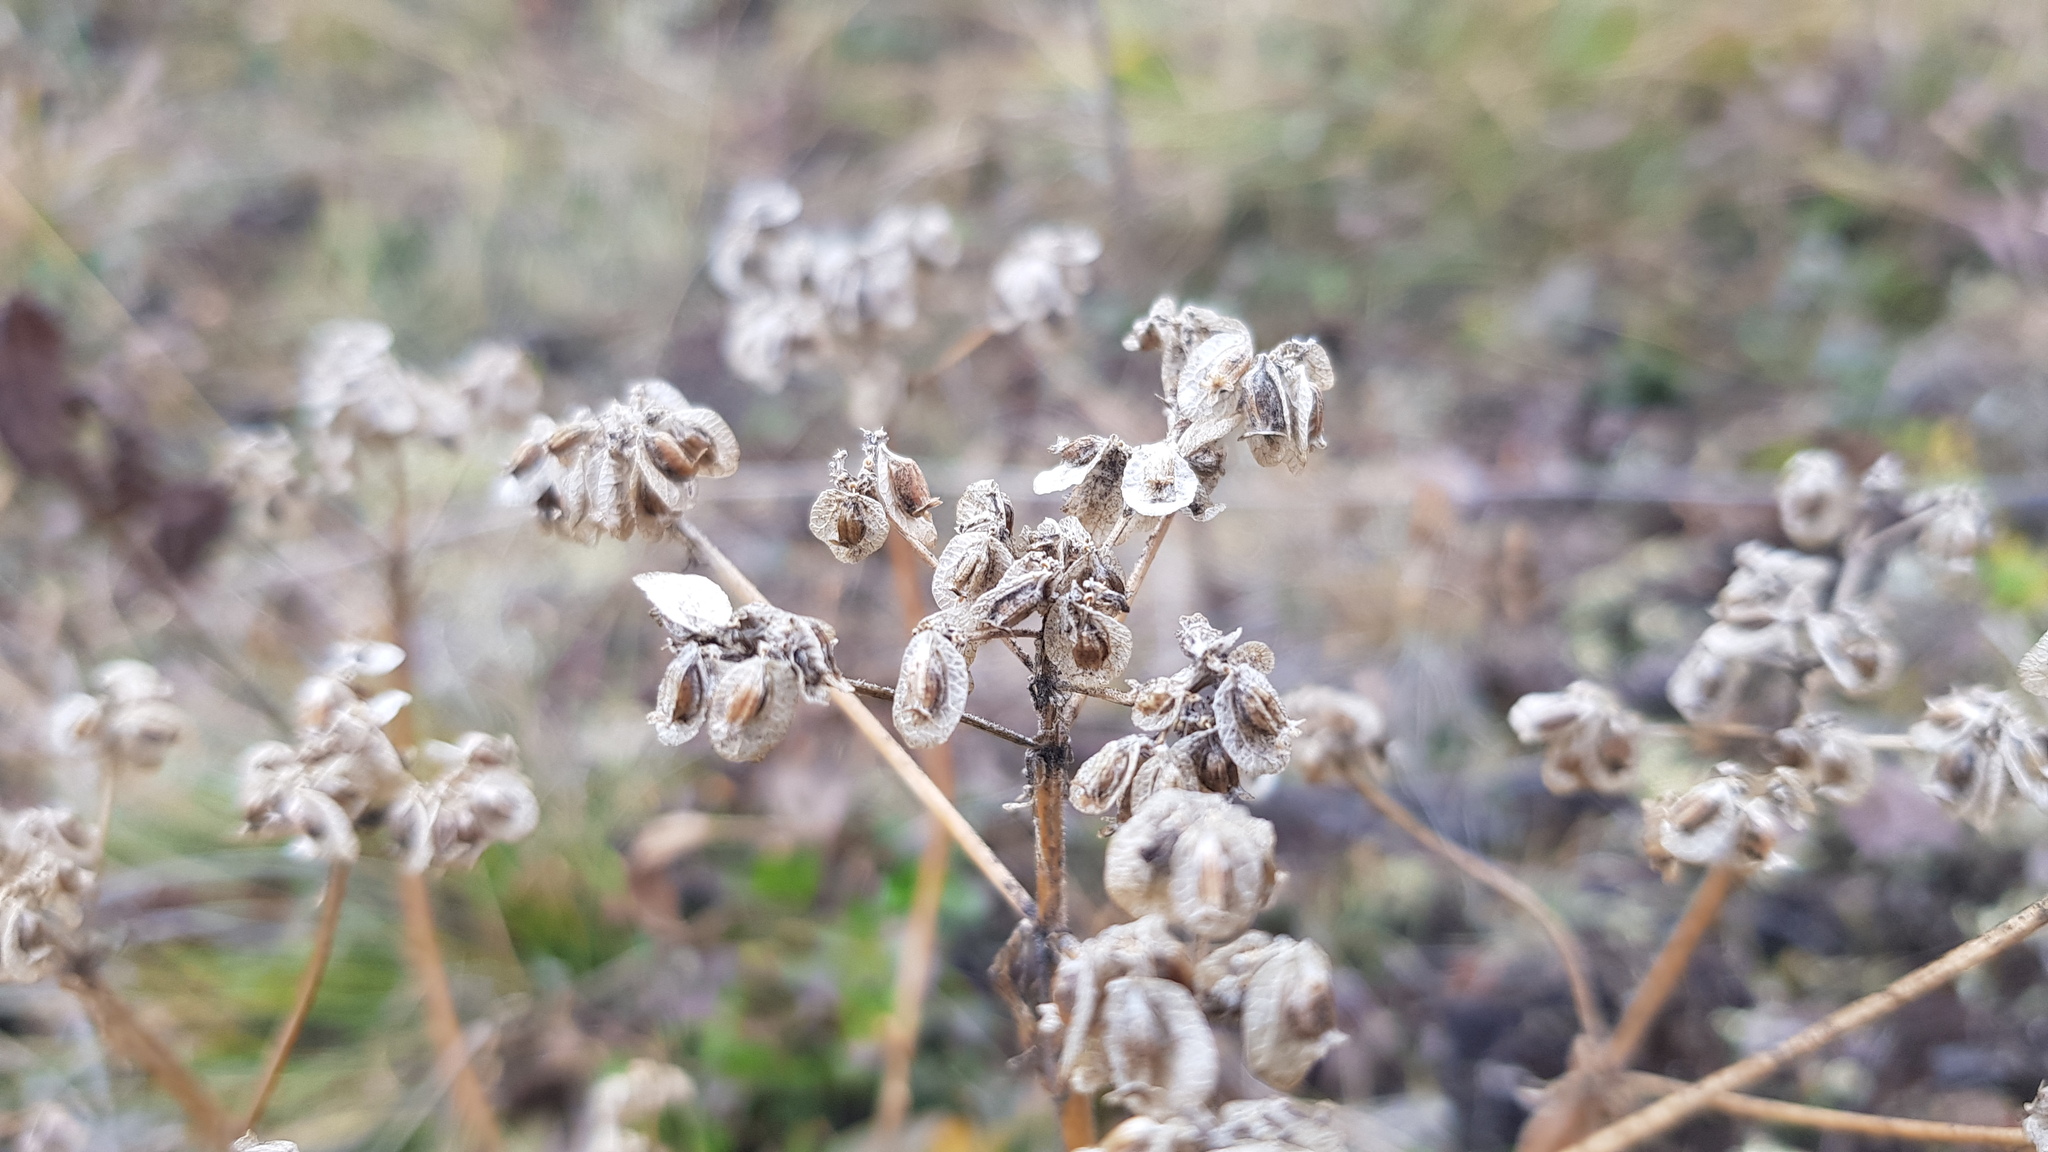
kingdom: Plantae
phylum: Tracheophyta
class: Magnoliopsida
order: Dipsacales
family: Caprifoliaceae
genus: Patrinia
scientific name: Patrinia sibirica
